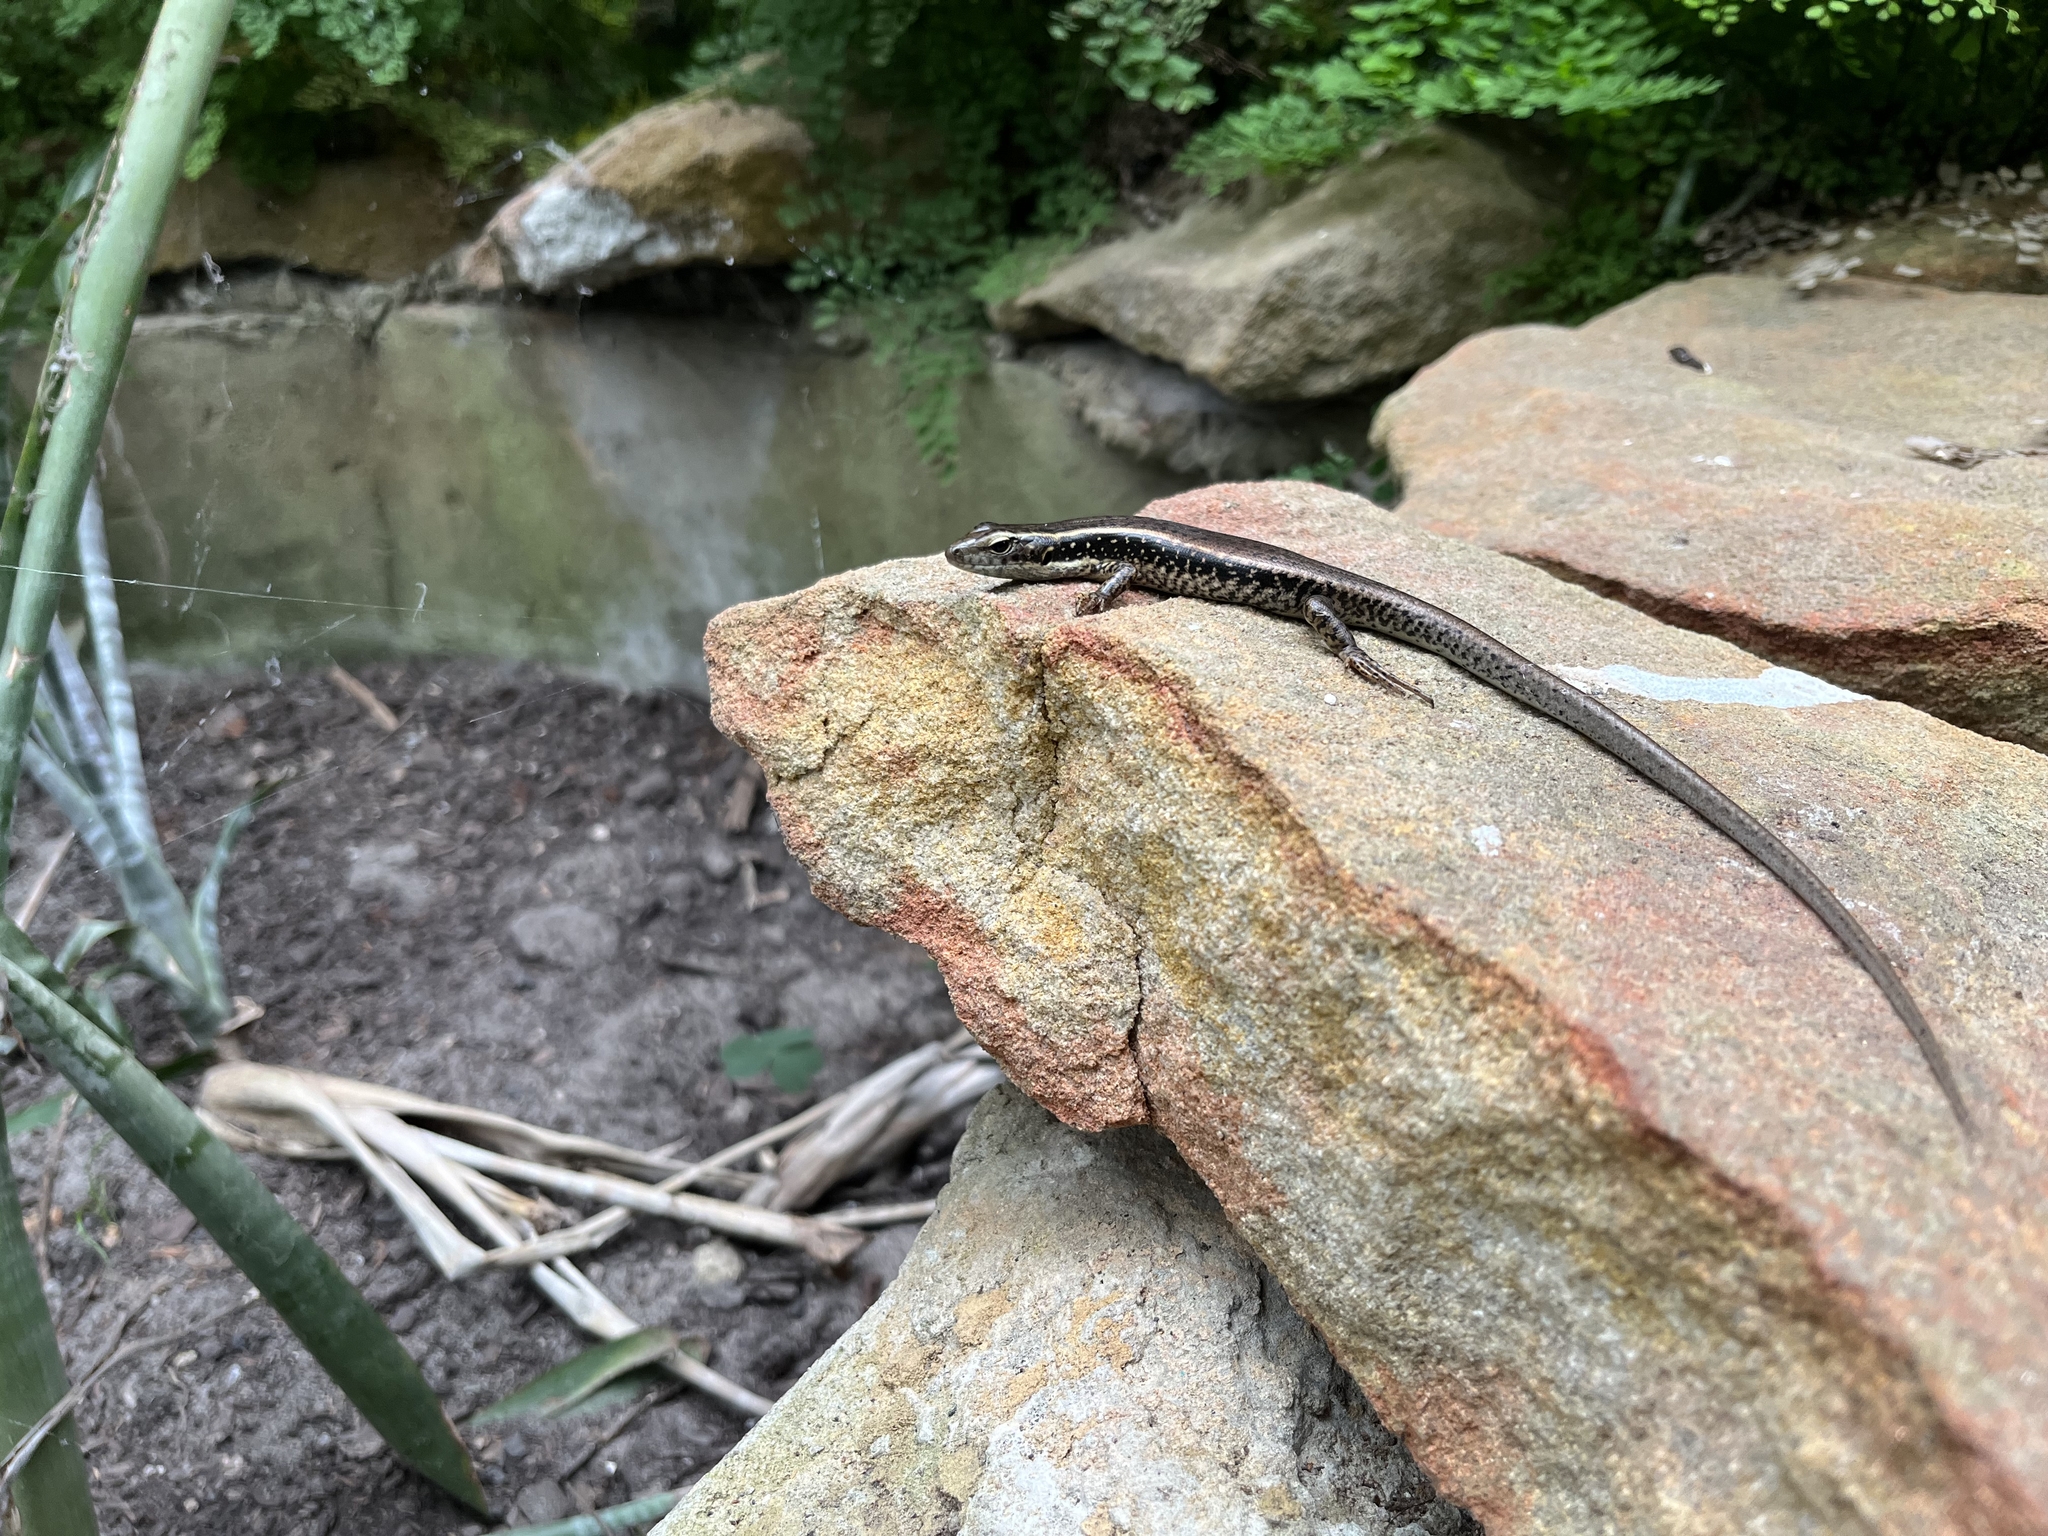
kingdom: Animalia
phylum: Chordata
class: Squamata
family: Scincidae
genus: Eulamprus
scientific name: Eulamprus quoyii
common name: Eastern water skink
